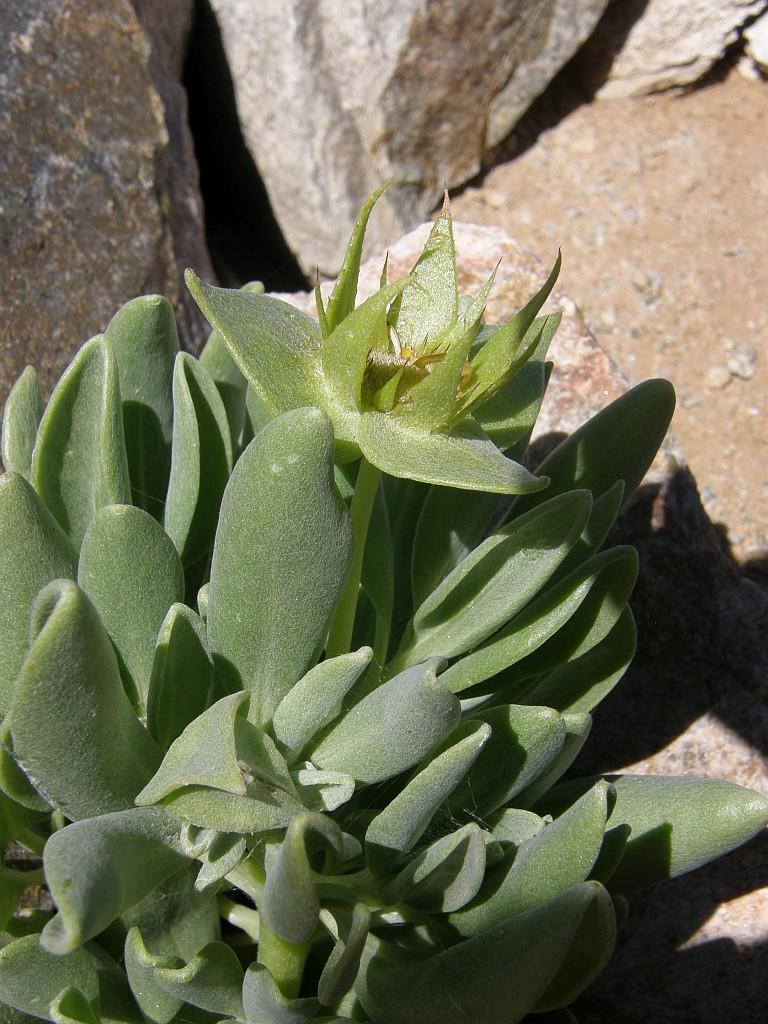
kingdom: Plantae
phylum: Tracheophyta
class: Magnoliopsida
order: Asterales
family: Asteraceae
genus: Didelta
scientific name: Didelta carnosa
